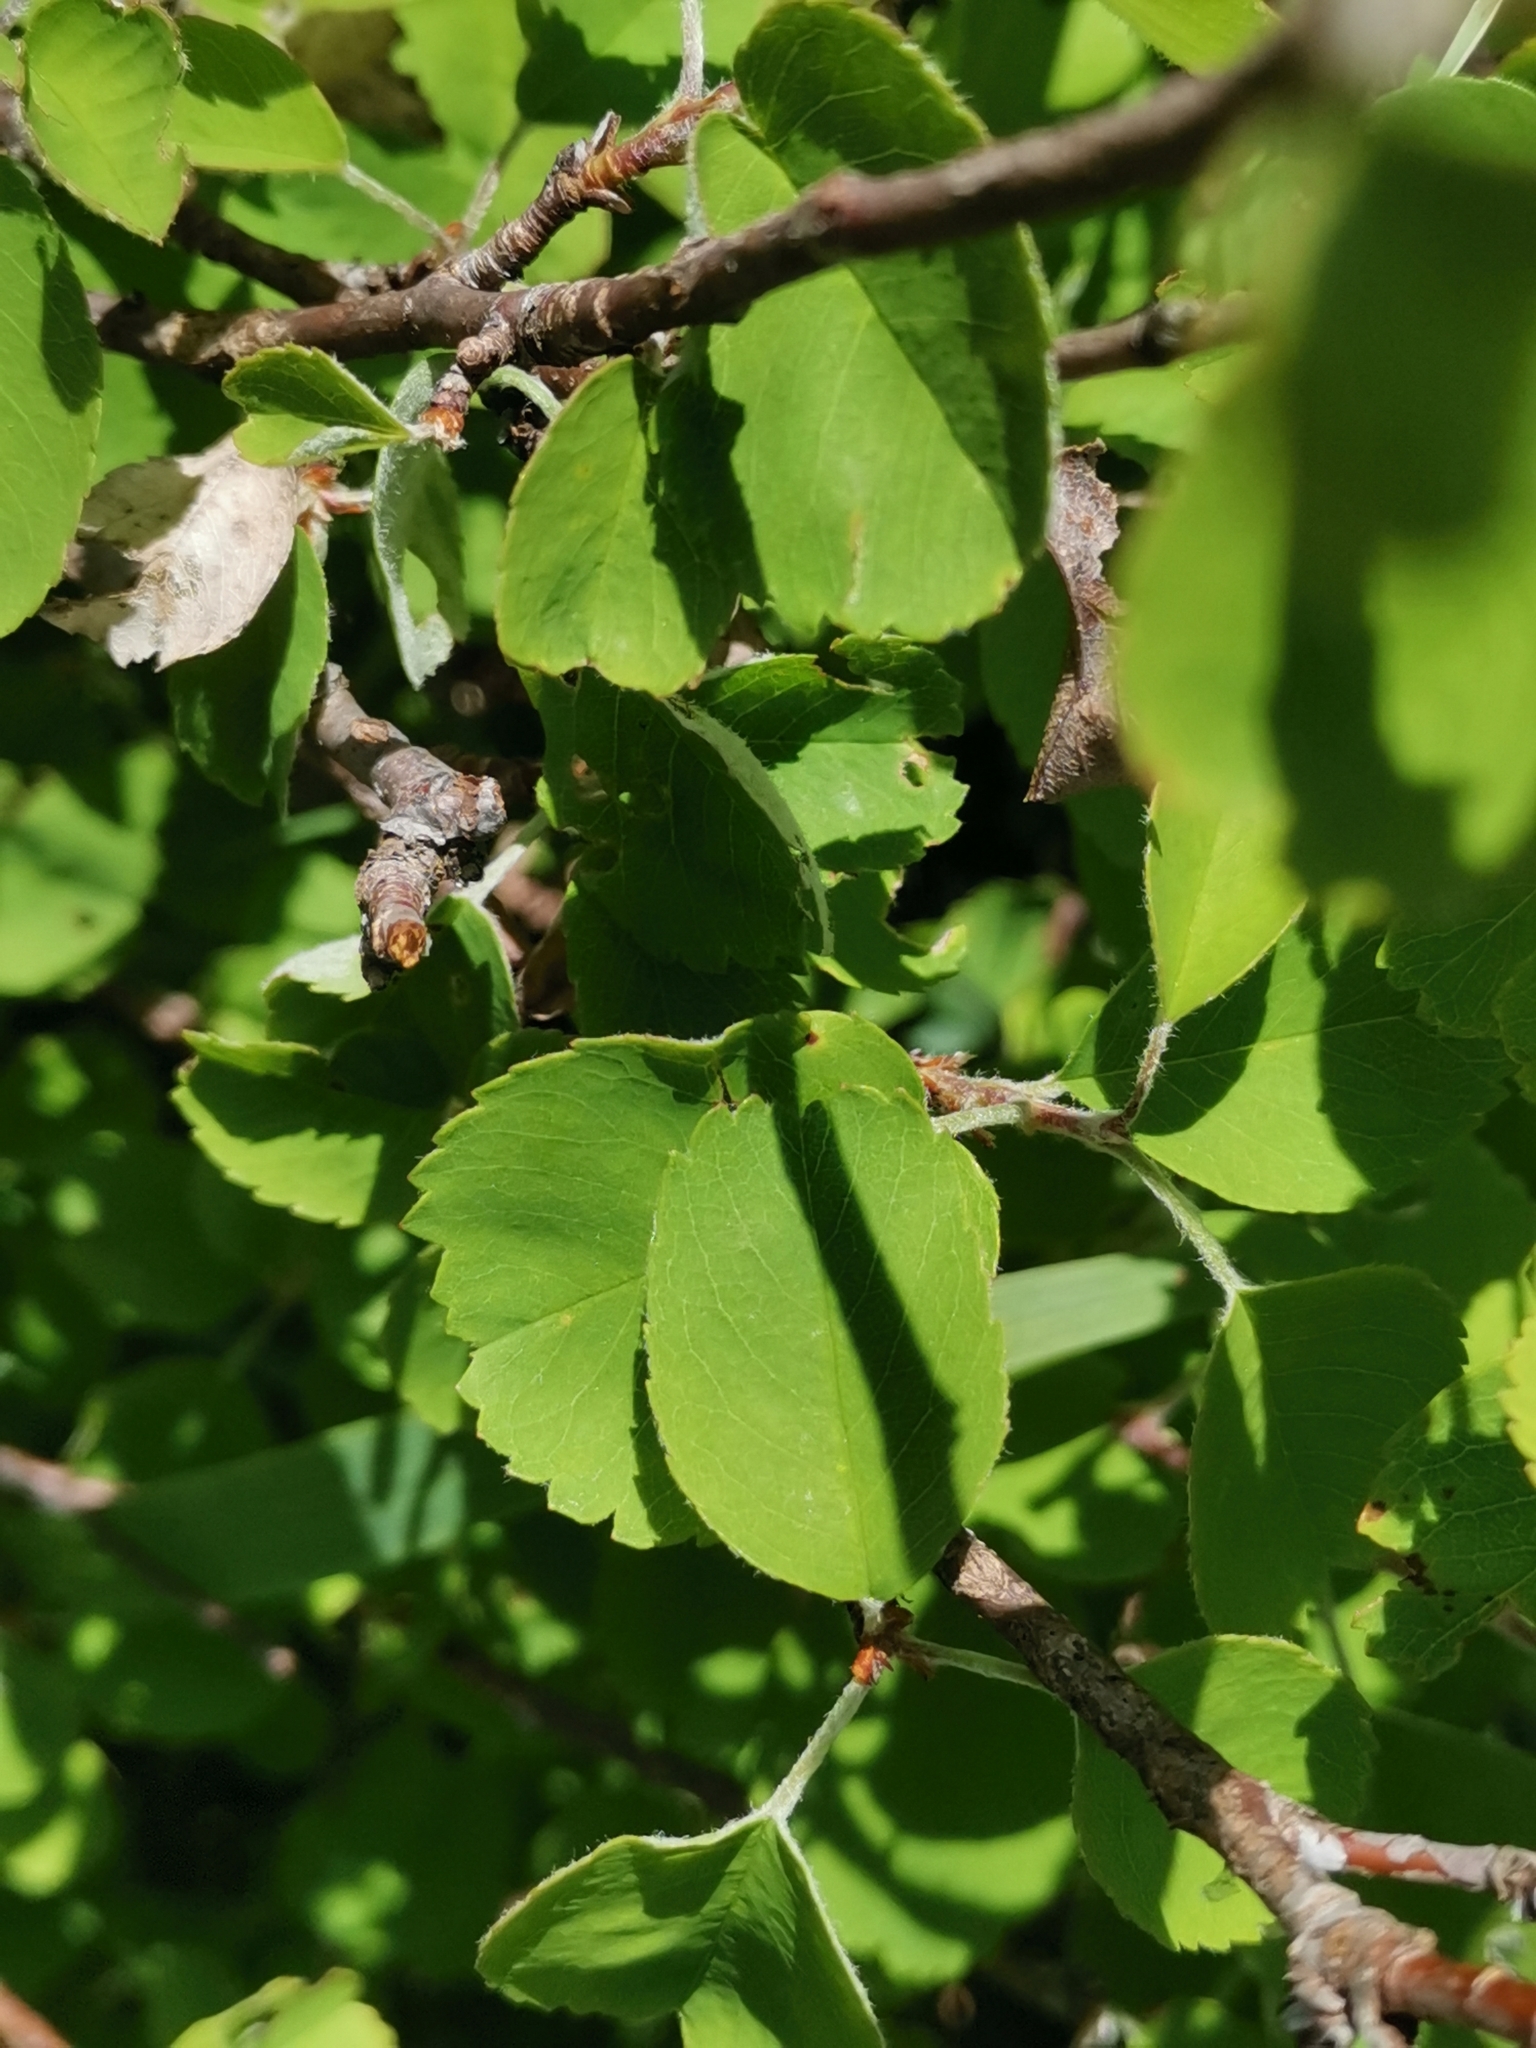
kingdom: Plantae
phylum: Tracheophyta
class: Magnoliopsida
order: Rosales
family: Rosaceae
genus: Spiraea
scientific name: Spiraea media
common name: Russian spiraea
